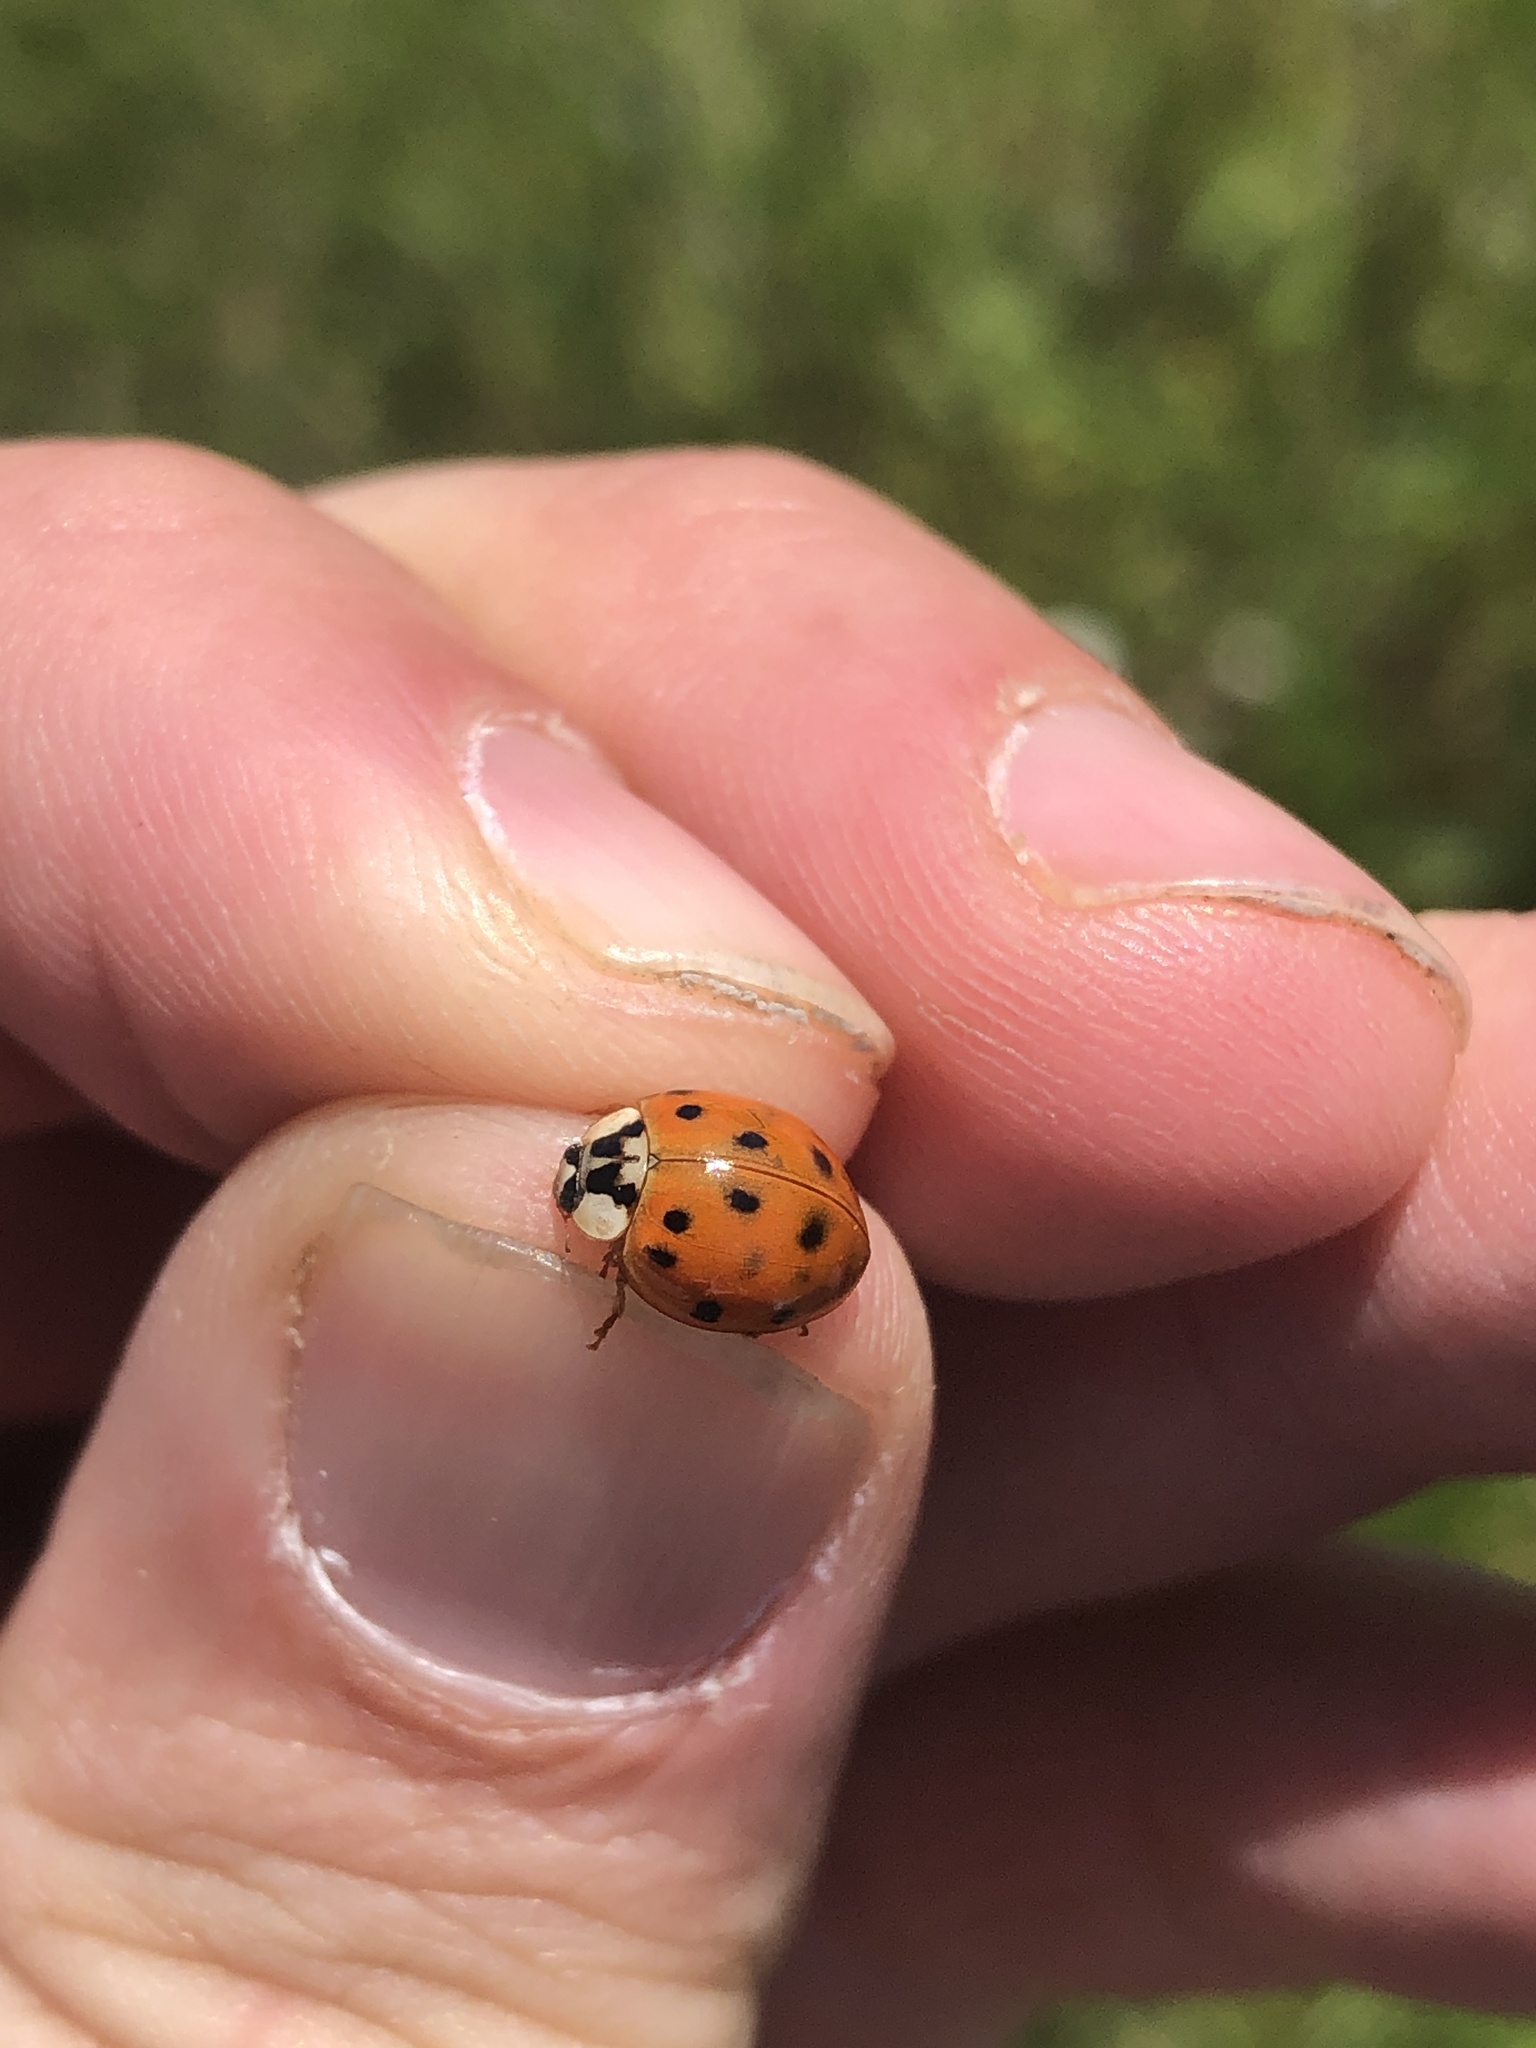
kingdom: Animalia
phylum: Arthropoda
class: Insecta
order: Coleoptera
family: Coccinellidae
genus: Harmonia
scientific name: Harmonia axyridis
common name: Harlequin ladybird
